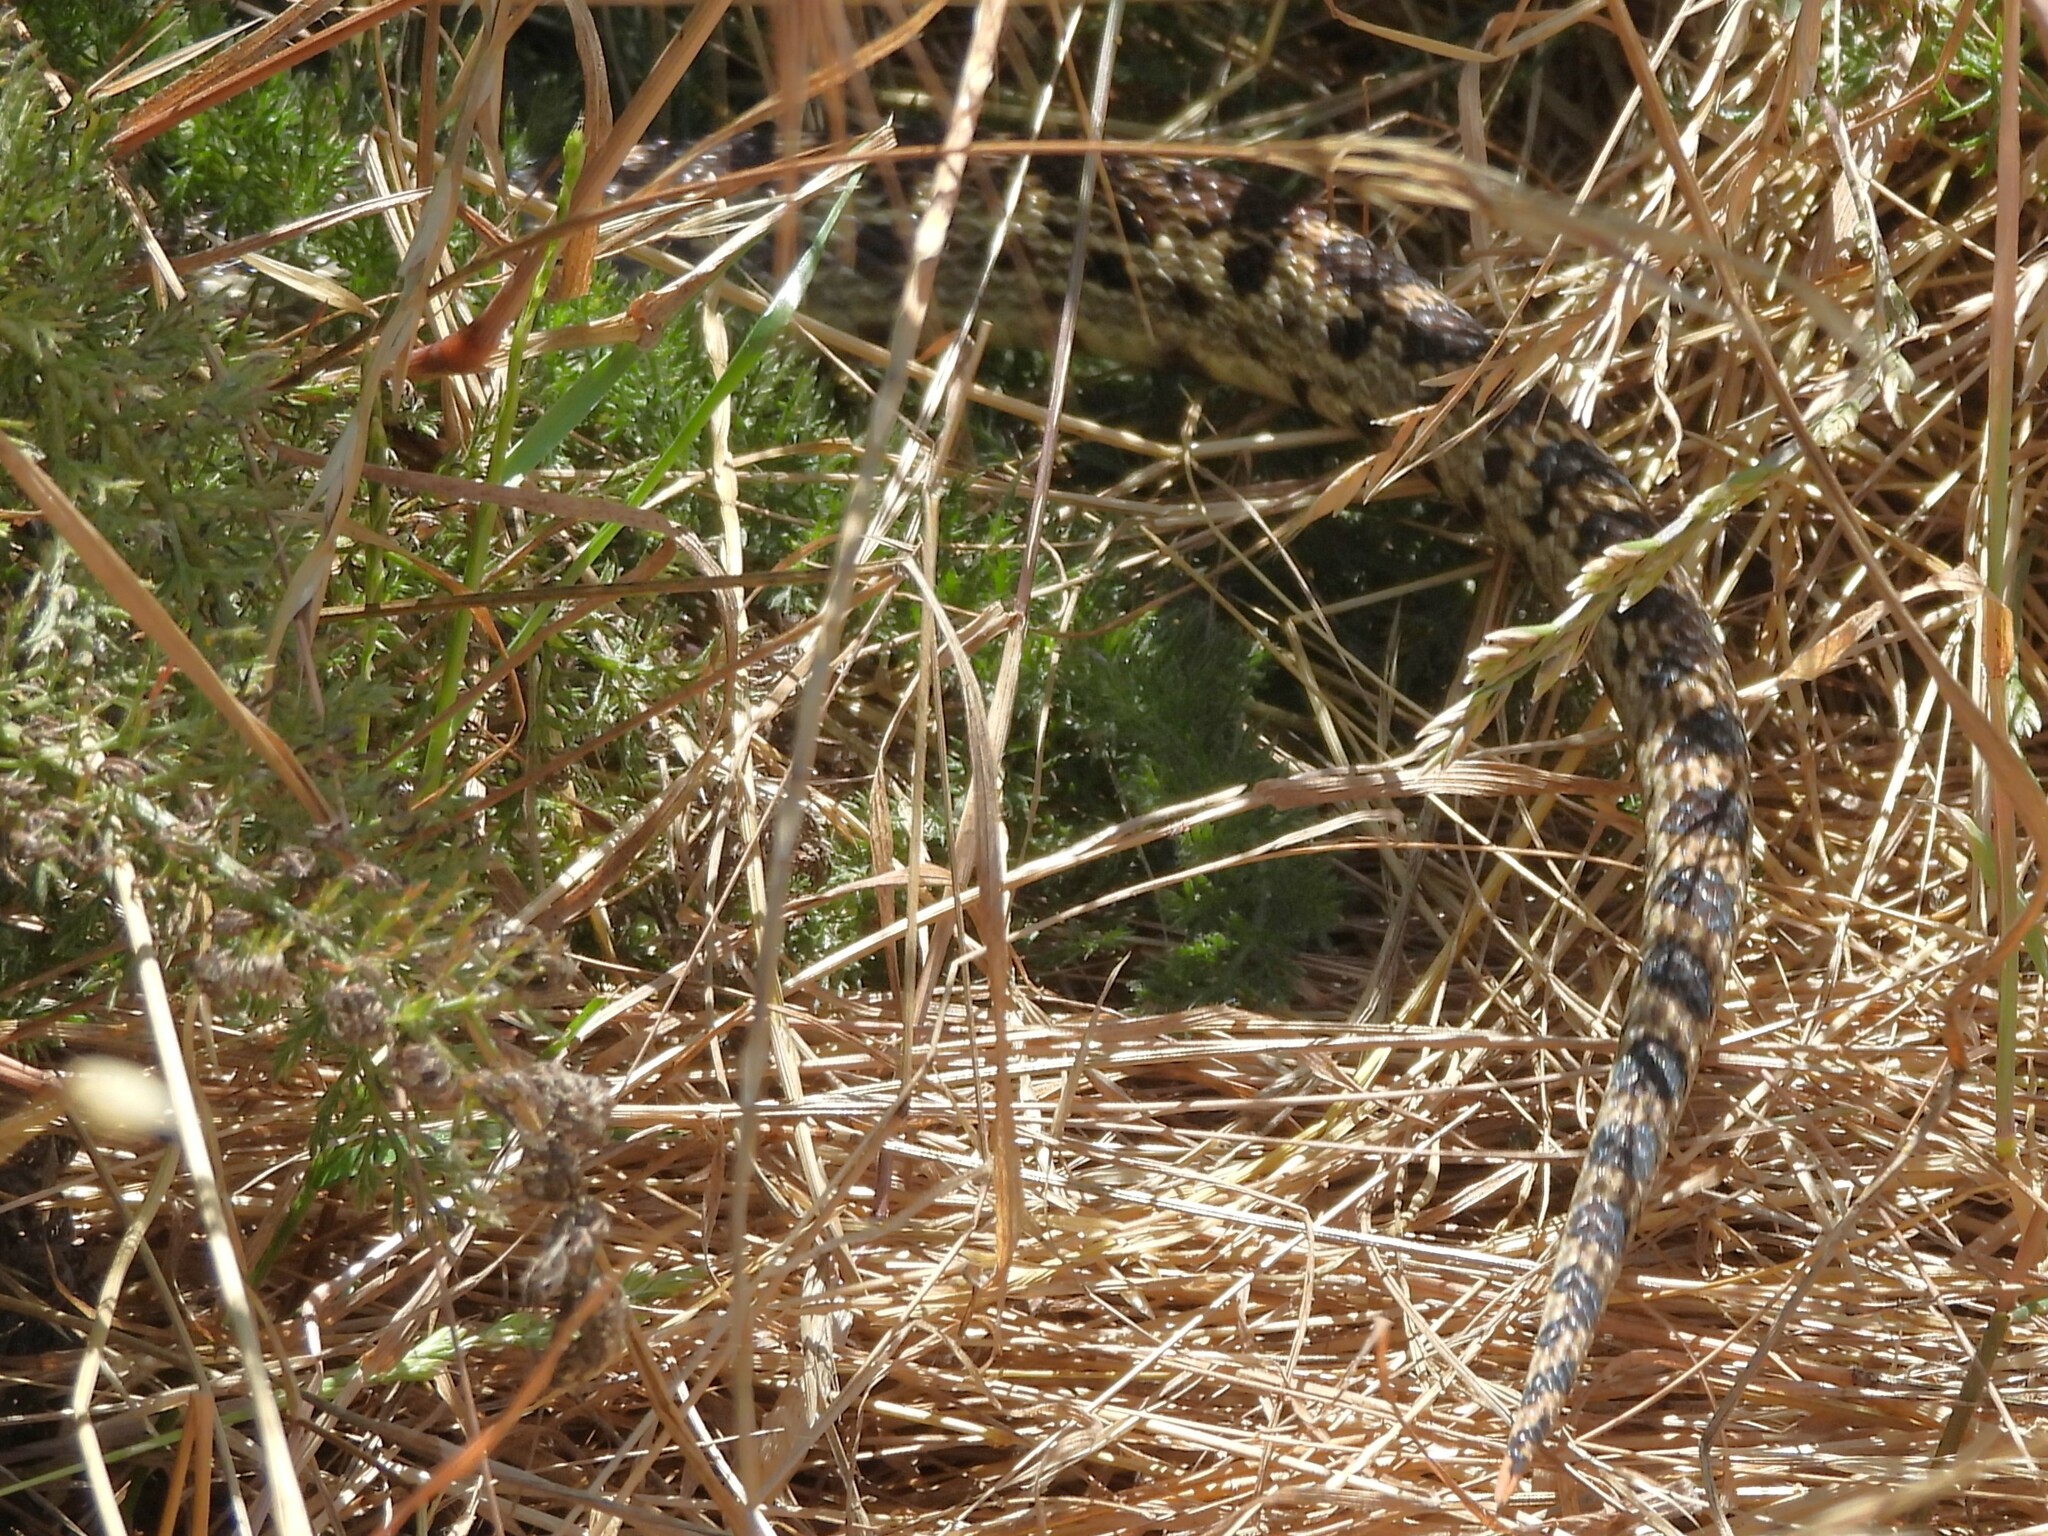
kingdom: Animalia
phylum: Chordata
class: Squamata
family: Colubridae
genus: Pituophis
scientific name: Pituophis catenifer
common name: Gopher snake
